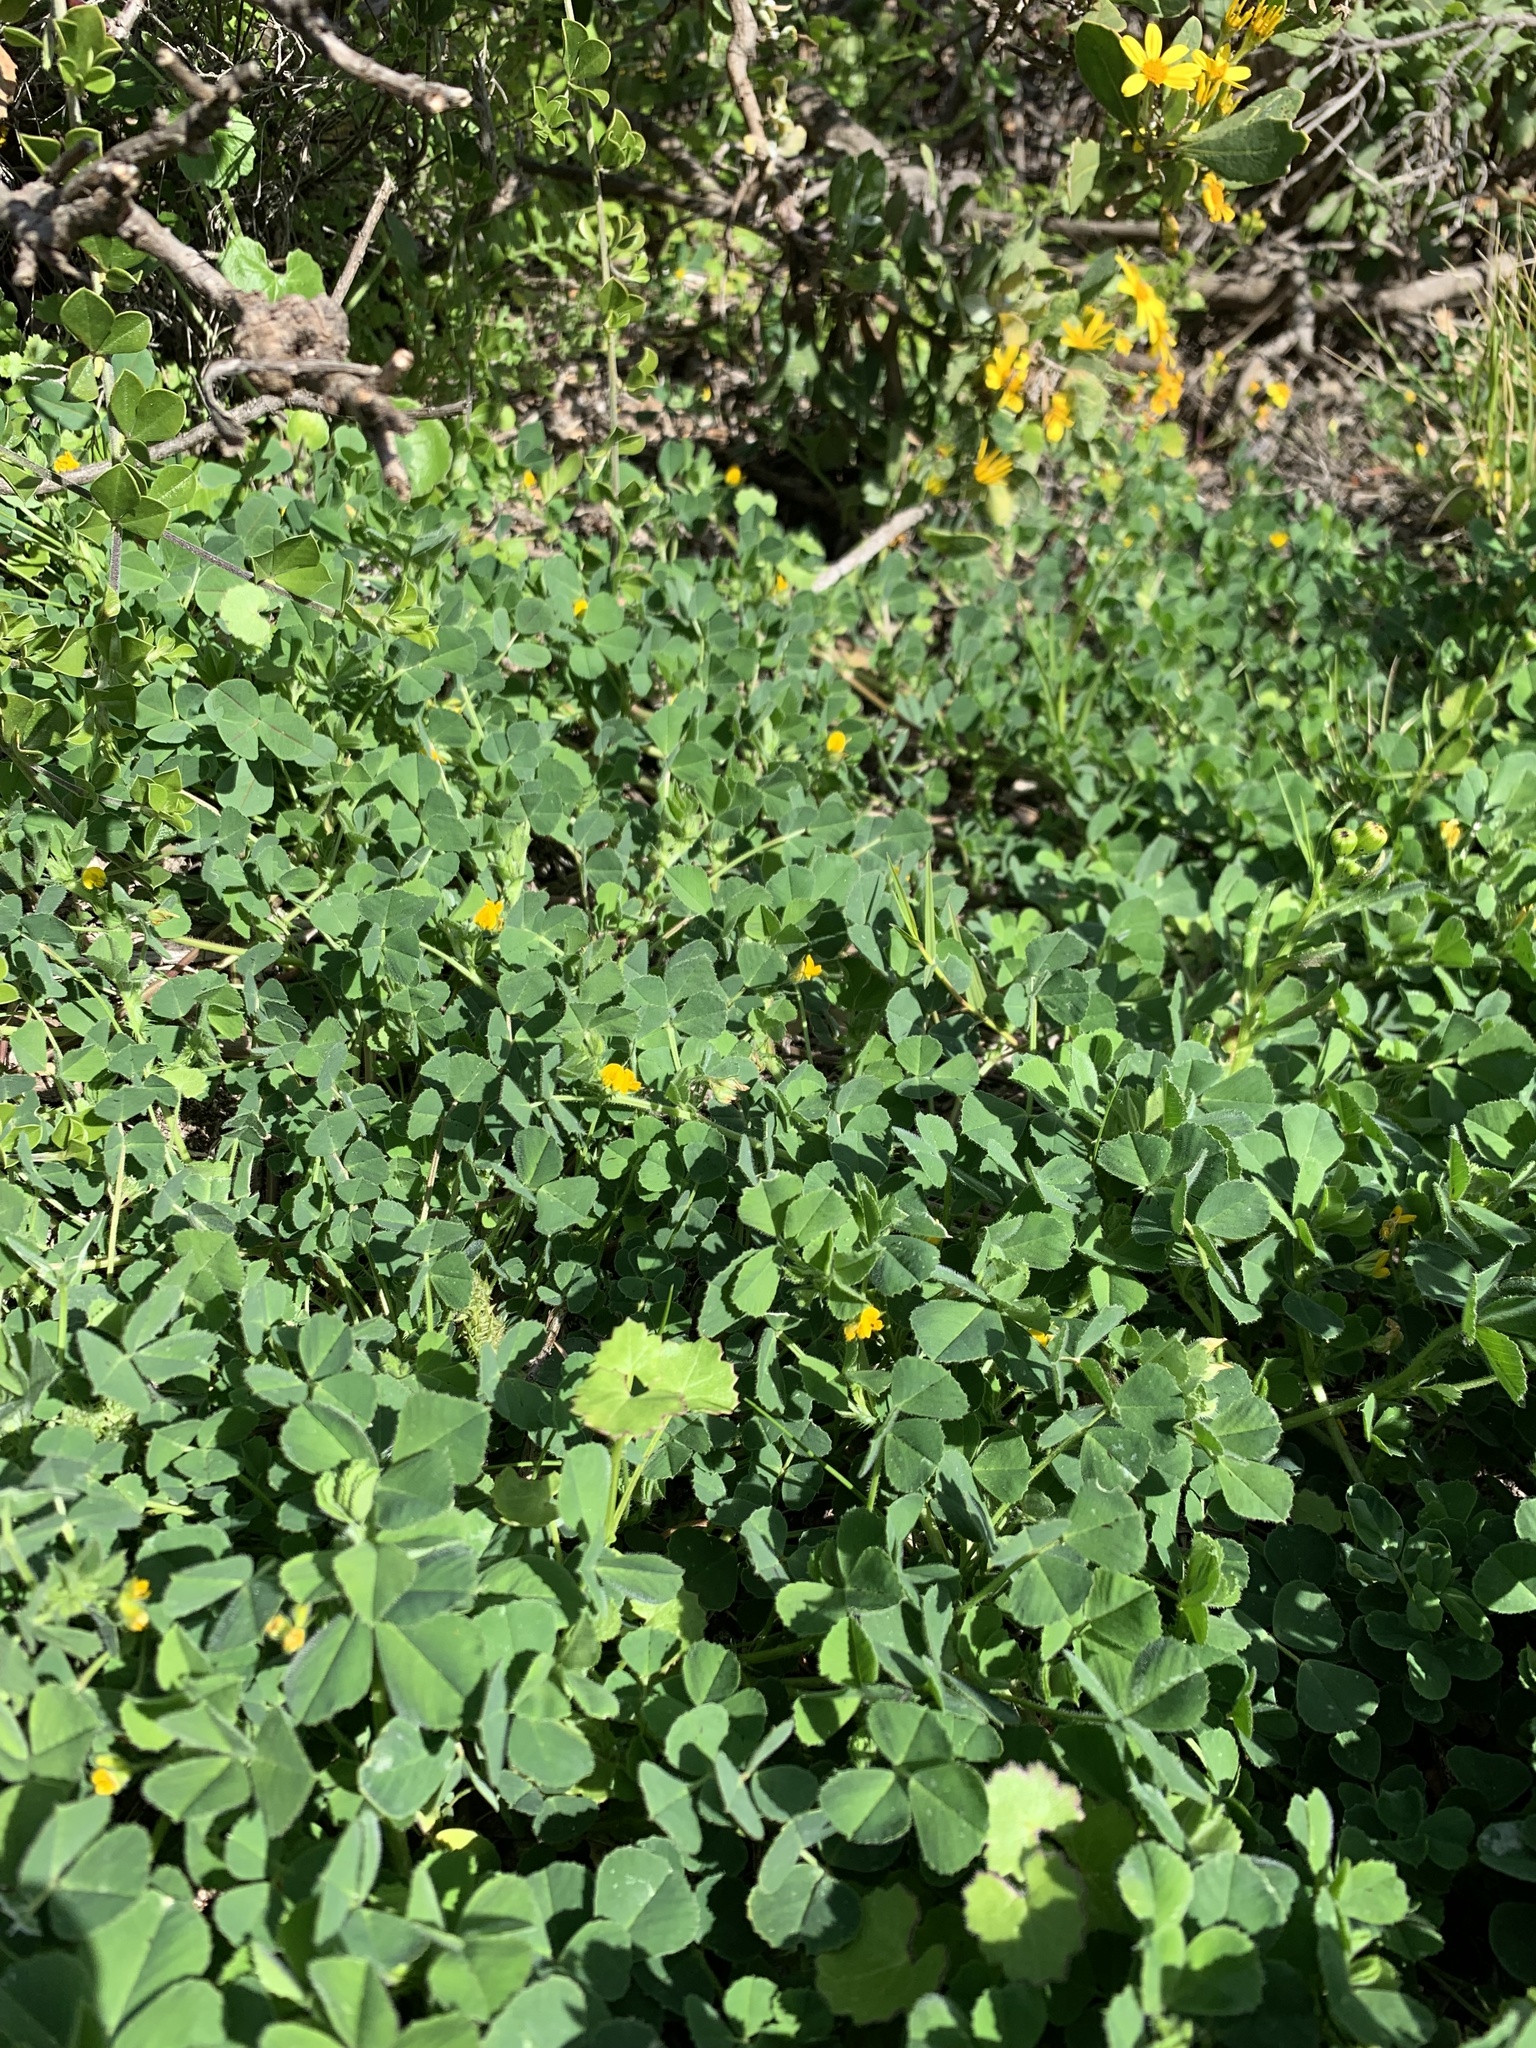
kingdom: Plantae
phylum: Tracheophyta
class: Magnoliopsida
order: Fabales
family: Fabaceae
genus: Medicago
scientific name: Medicago polymorpha
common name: Burclover
